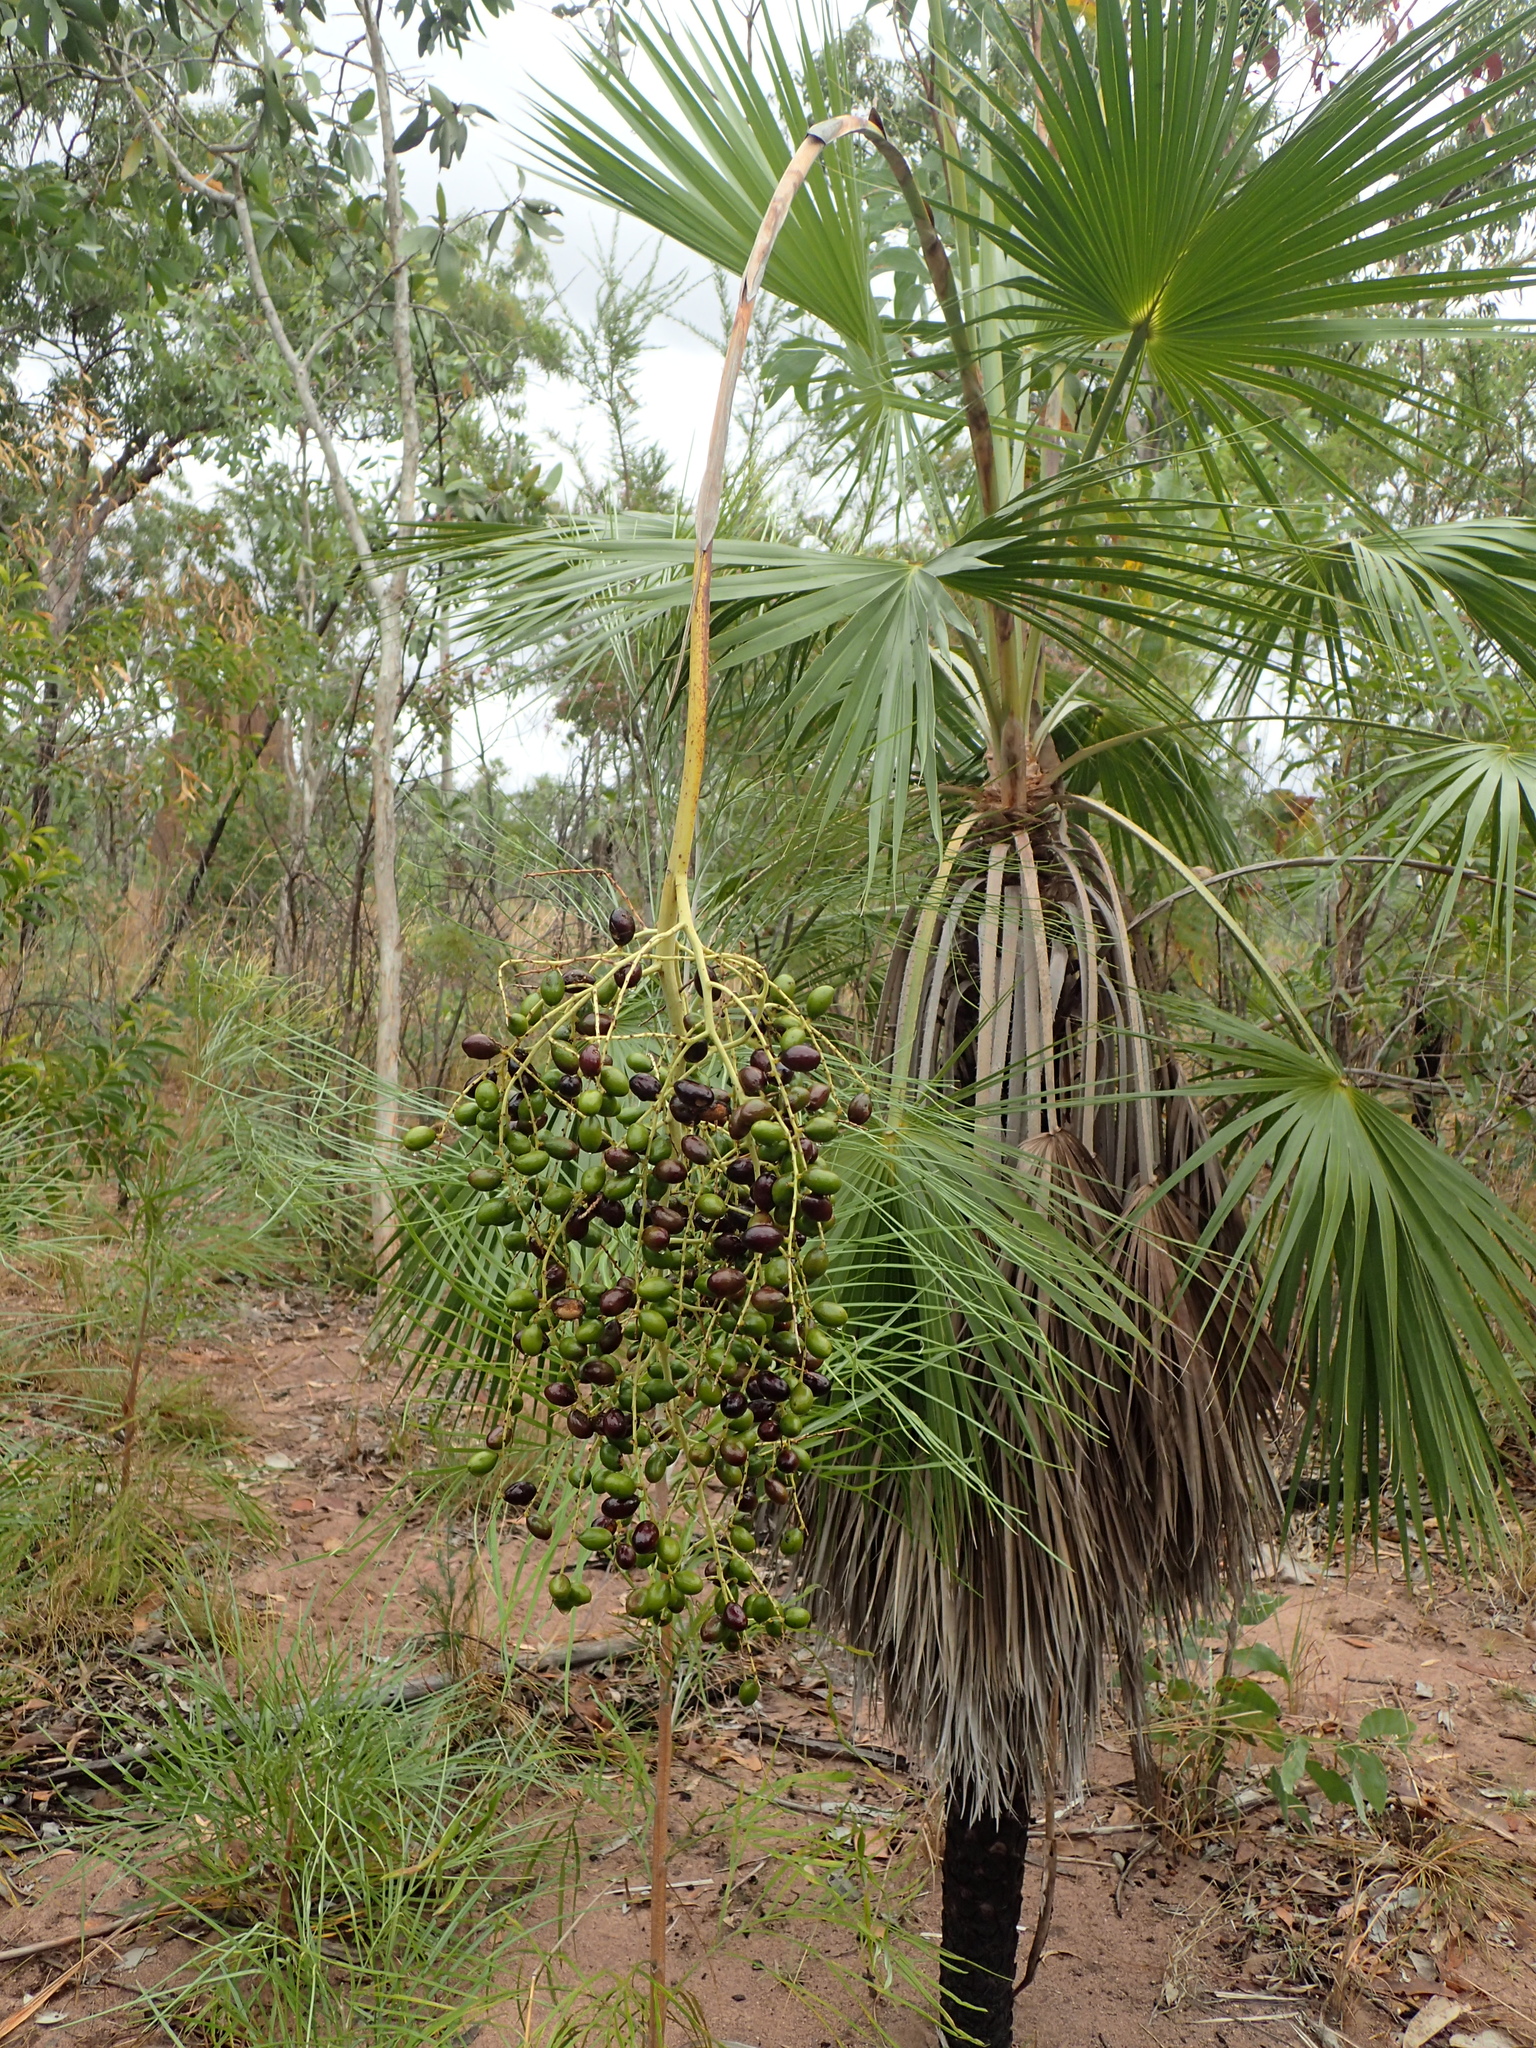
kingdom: Plantae
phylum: Tracheophyta
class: Liliopsida
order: Arecales
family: Arecaceae
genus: Livistona
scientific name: Livistona humilis
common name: Cabbage palm
